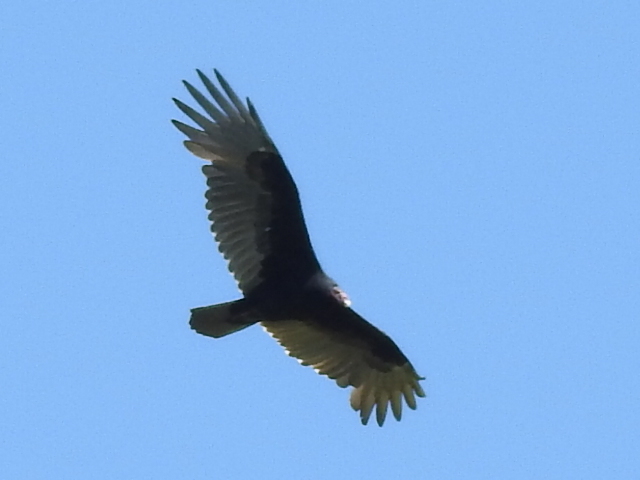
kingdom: Animalia
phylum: Chordata
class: Aves
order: Accipitriformes
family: Cathartidae
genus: Cathartes
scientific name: Cathartes aura
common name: Turkey vulture
